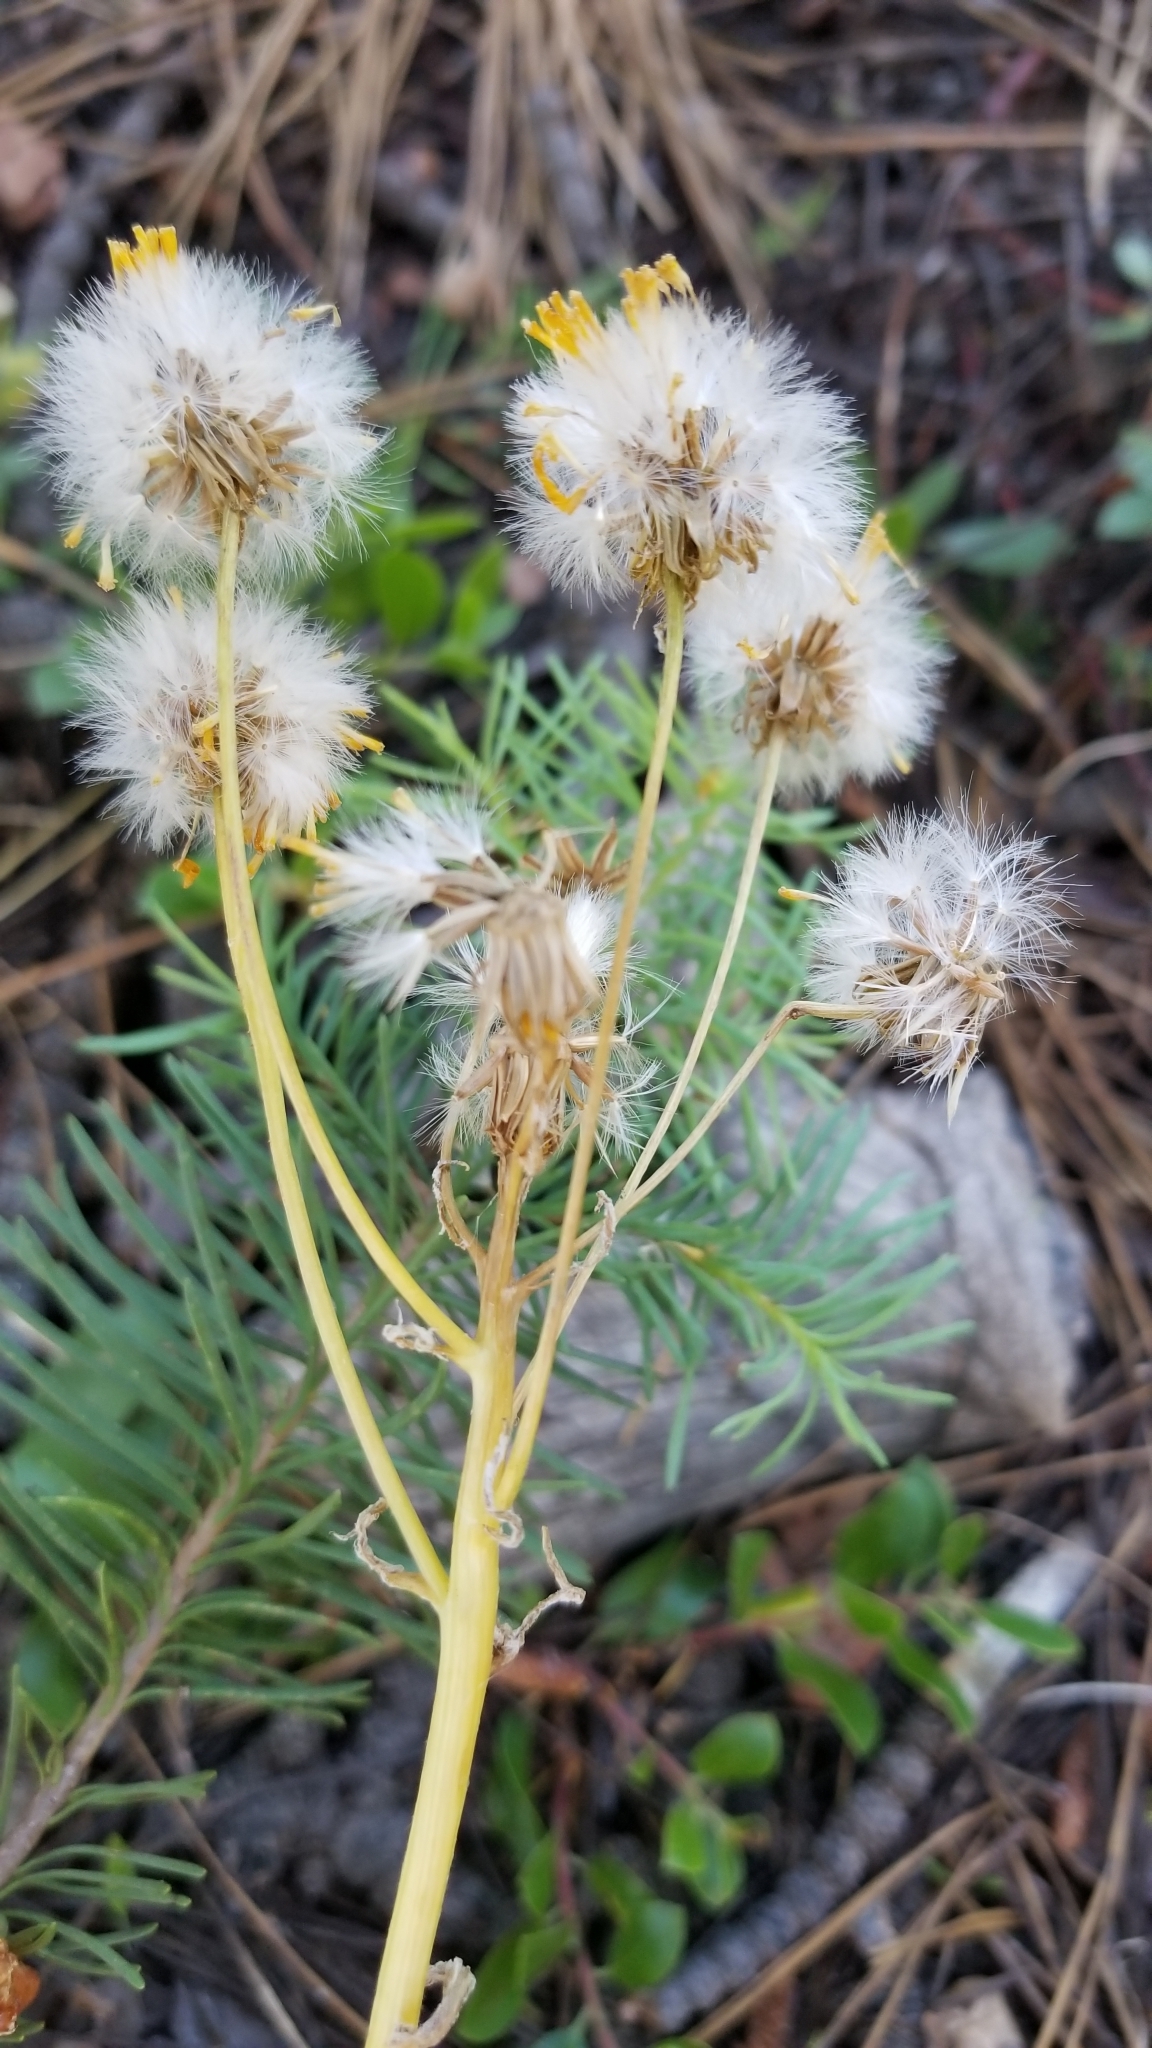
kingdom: Plantae
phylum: Tracheophyta
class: Magnoliopsida
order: Asterales
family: Asteraceae
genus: Senecio
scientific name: Senecio integerrimus
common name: Gaugeplant
